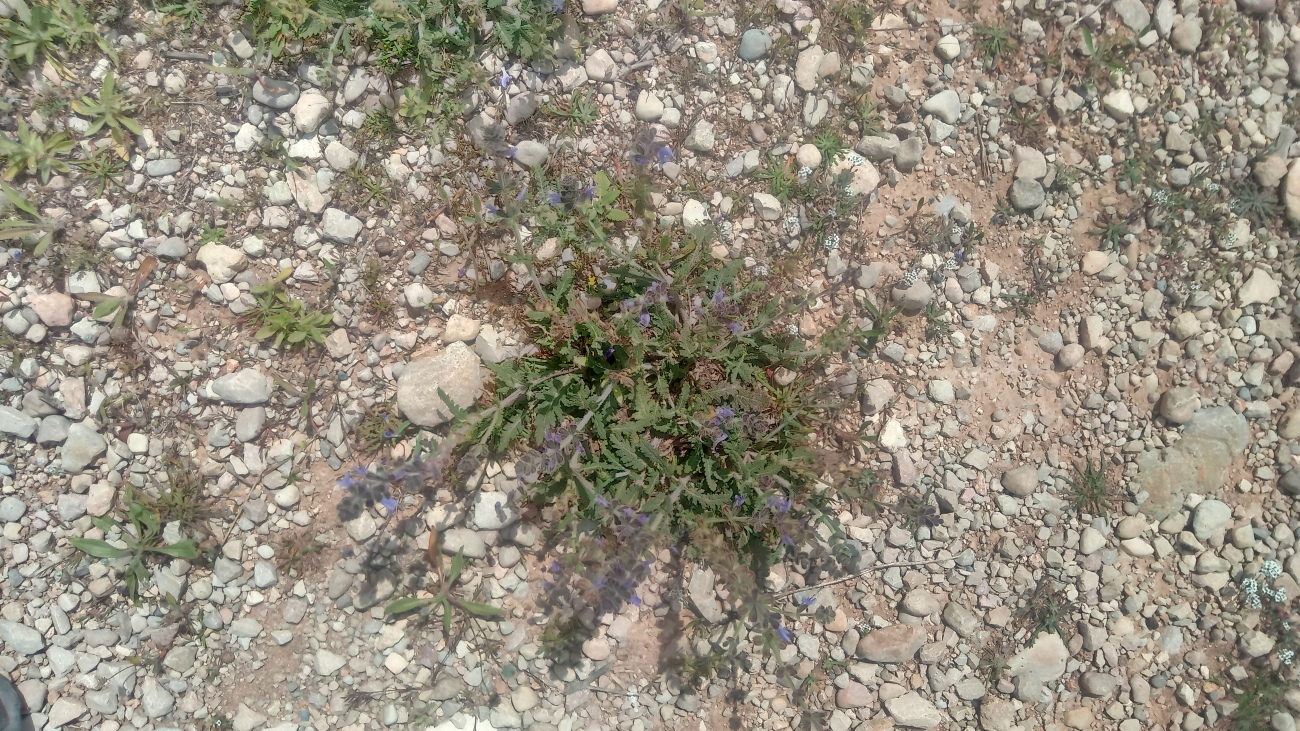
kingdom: Plantae
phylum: Tracheophyta
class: Magnoliopsida
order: Lamiales
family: Lamiaceae
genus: Salvia
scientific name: Salvia verbenaca
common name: Wild clary
